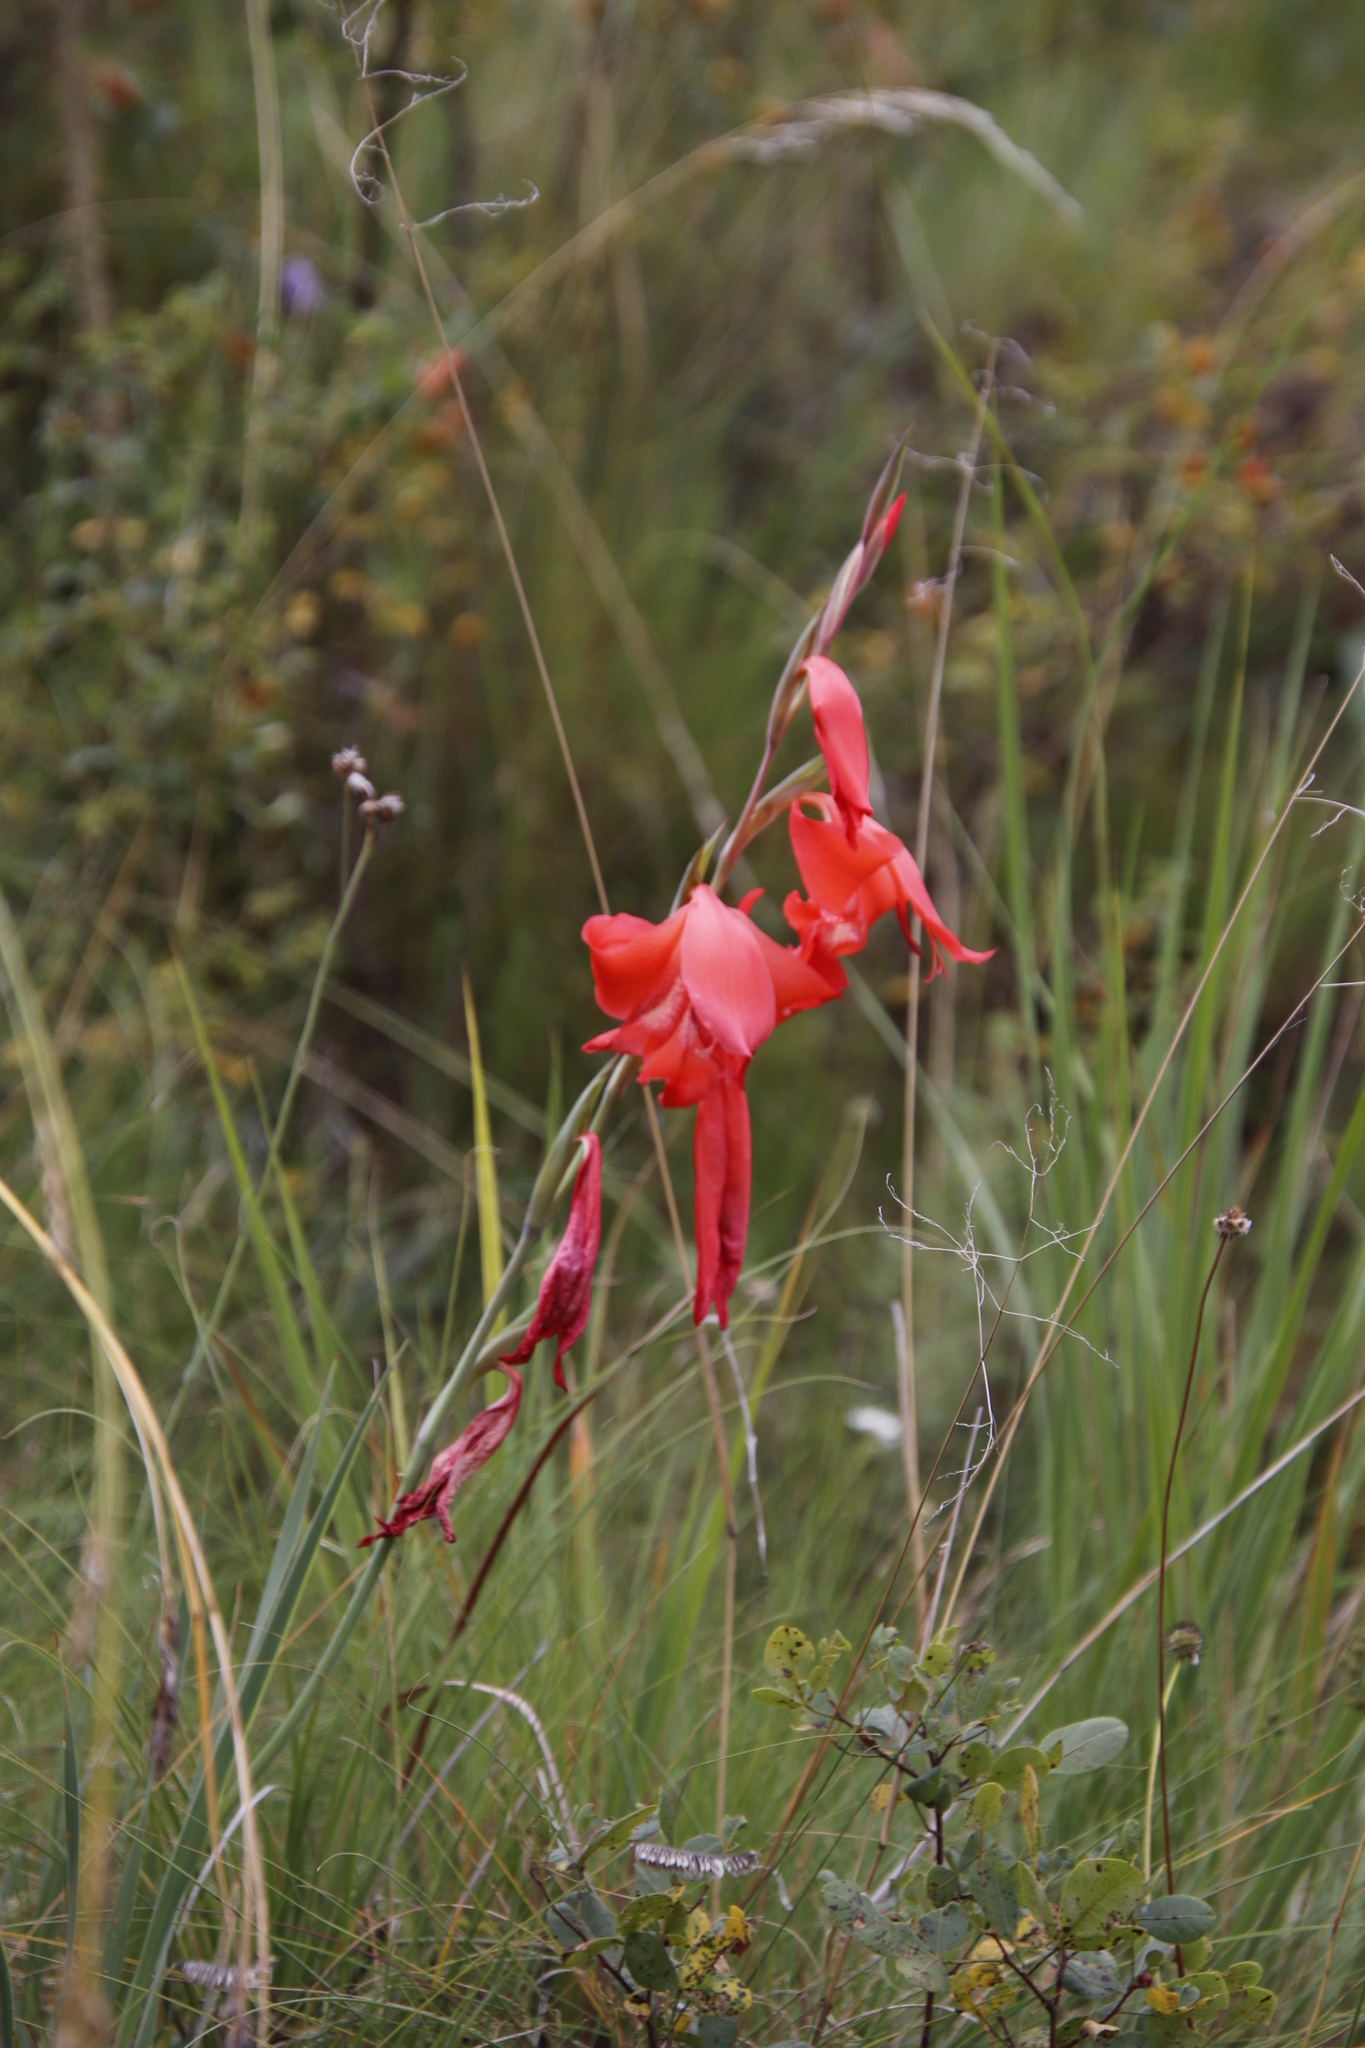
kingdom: Plantae
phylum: Tracheophyta
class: Liliopsida
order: Asparagales
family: Iridaceae
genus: Gladiolus
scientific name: Gladiolus saundersii
